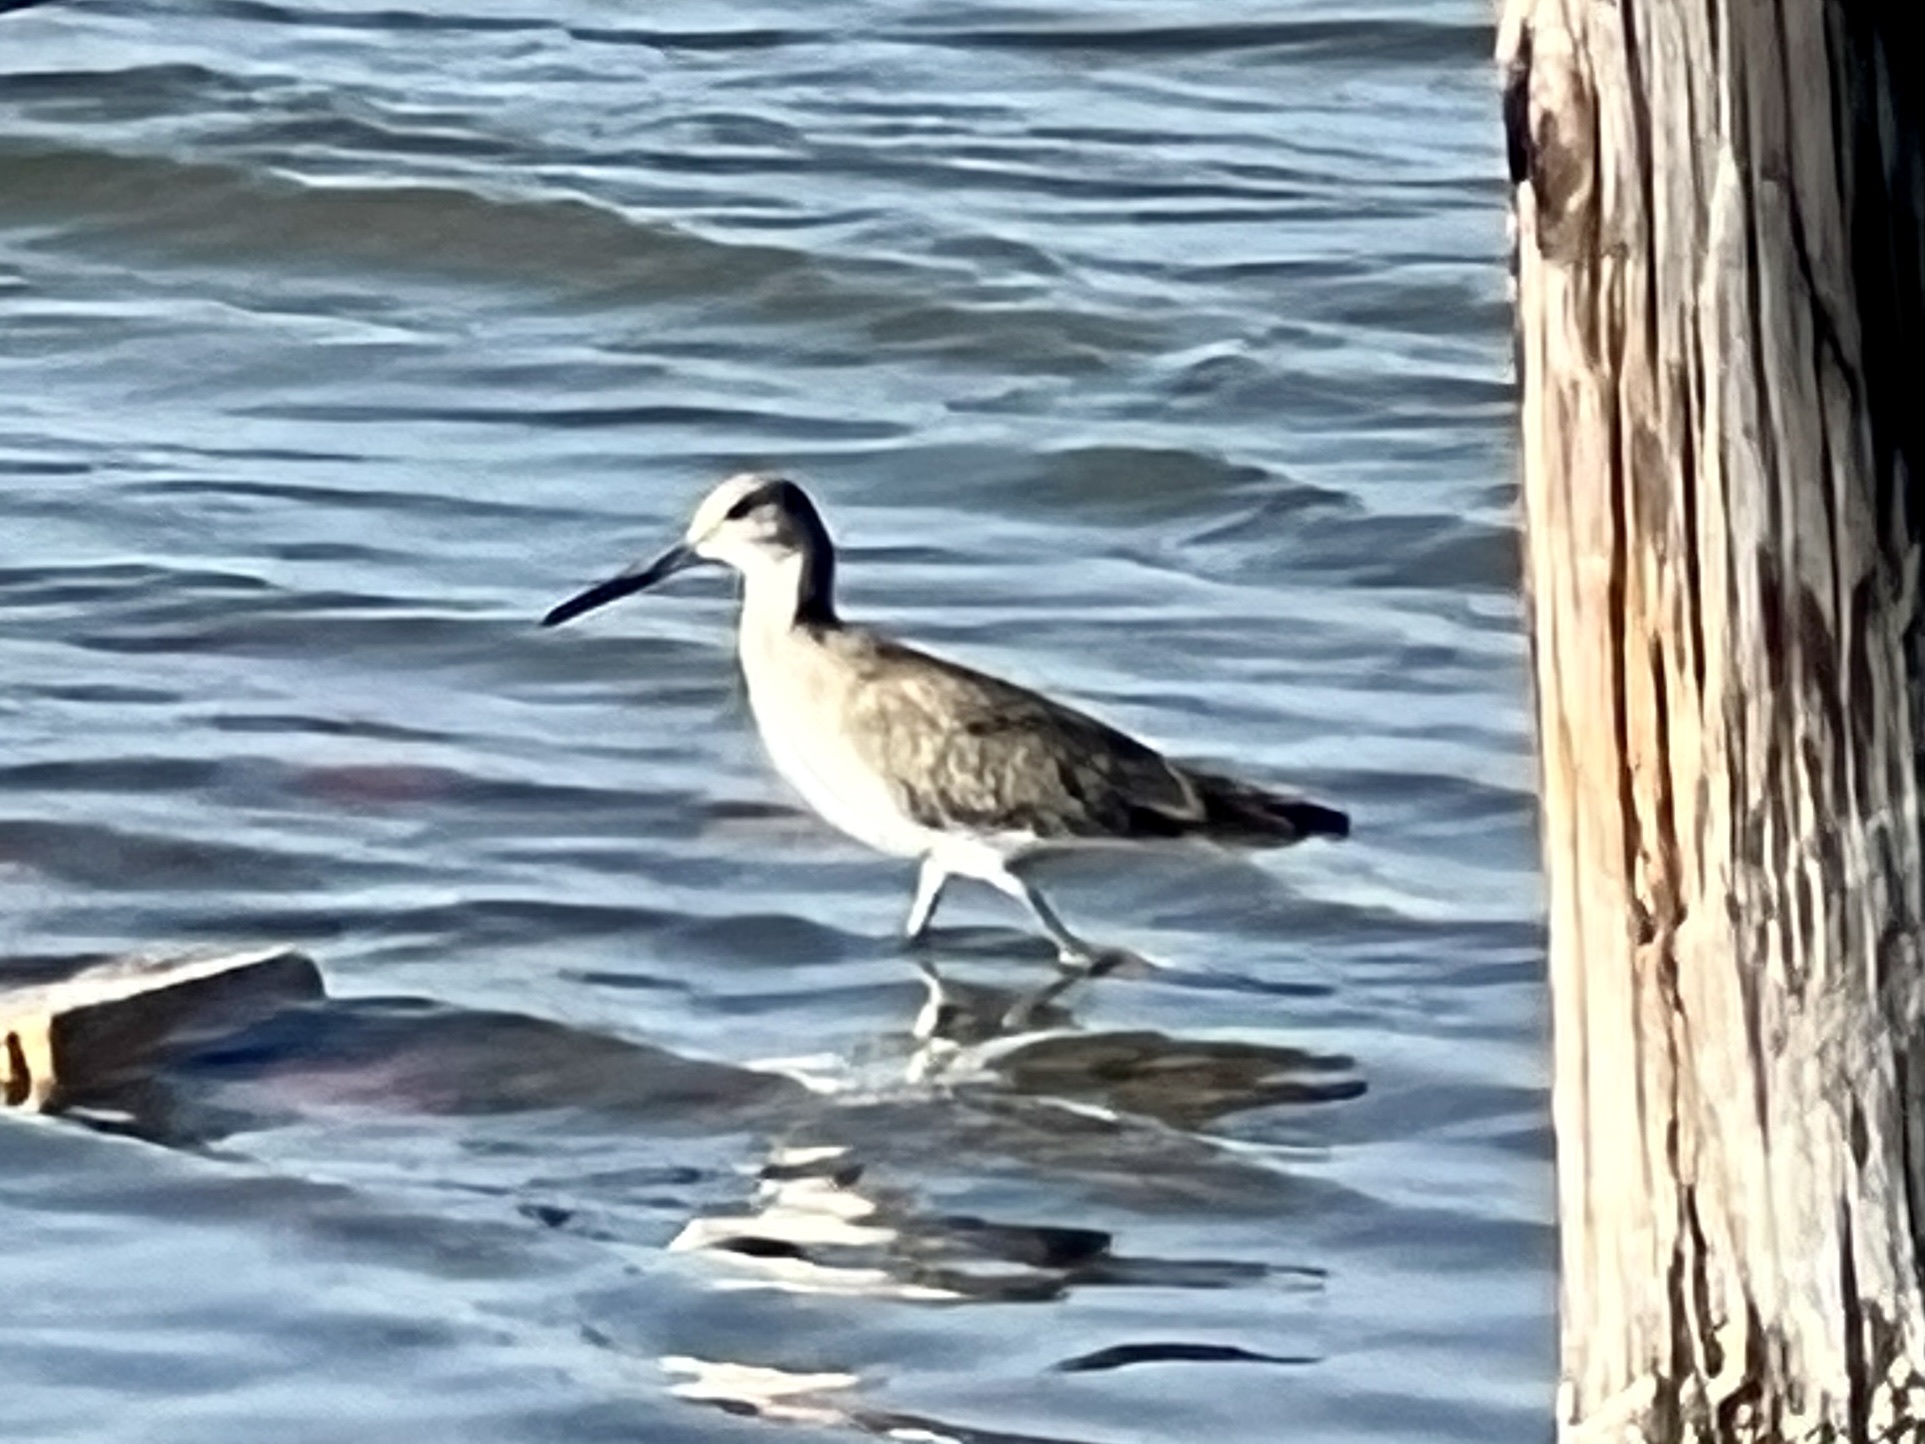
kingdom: Animalia
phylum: Chordata
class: Aves
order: Charadriiformes
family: Scolopacidae
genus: Tringa
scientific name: Tringa semipalmata
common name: Willet
